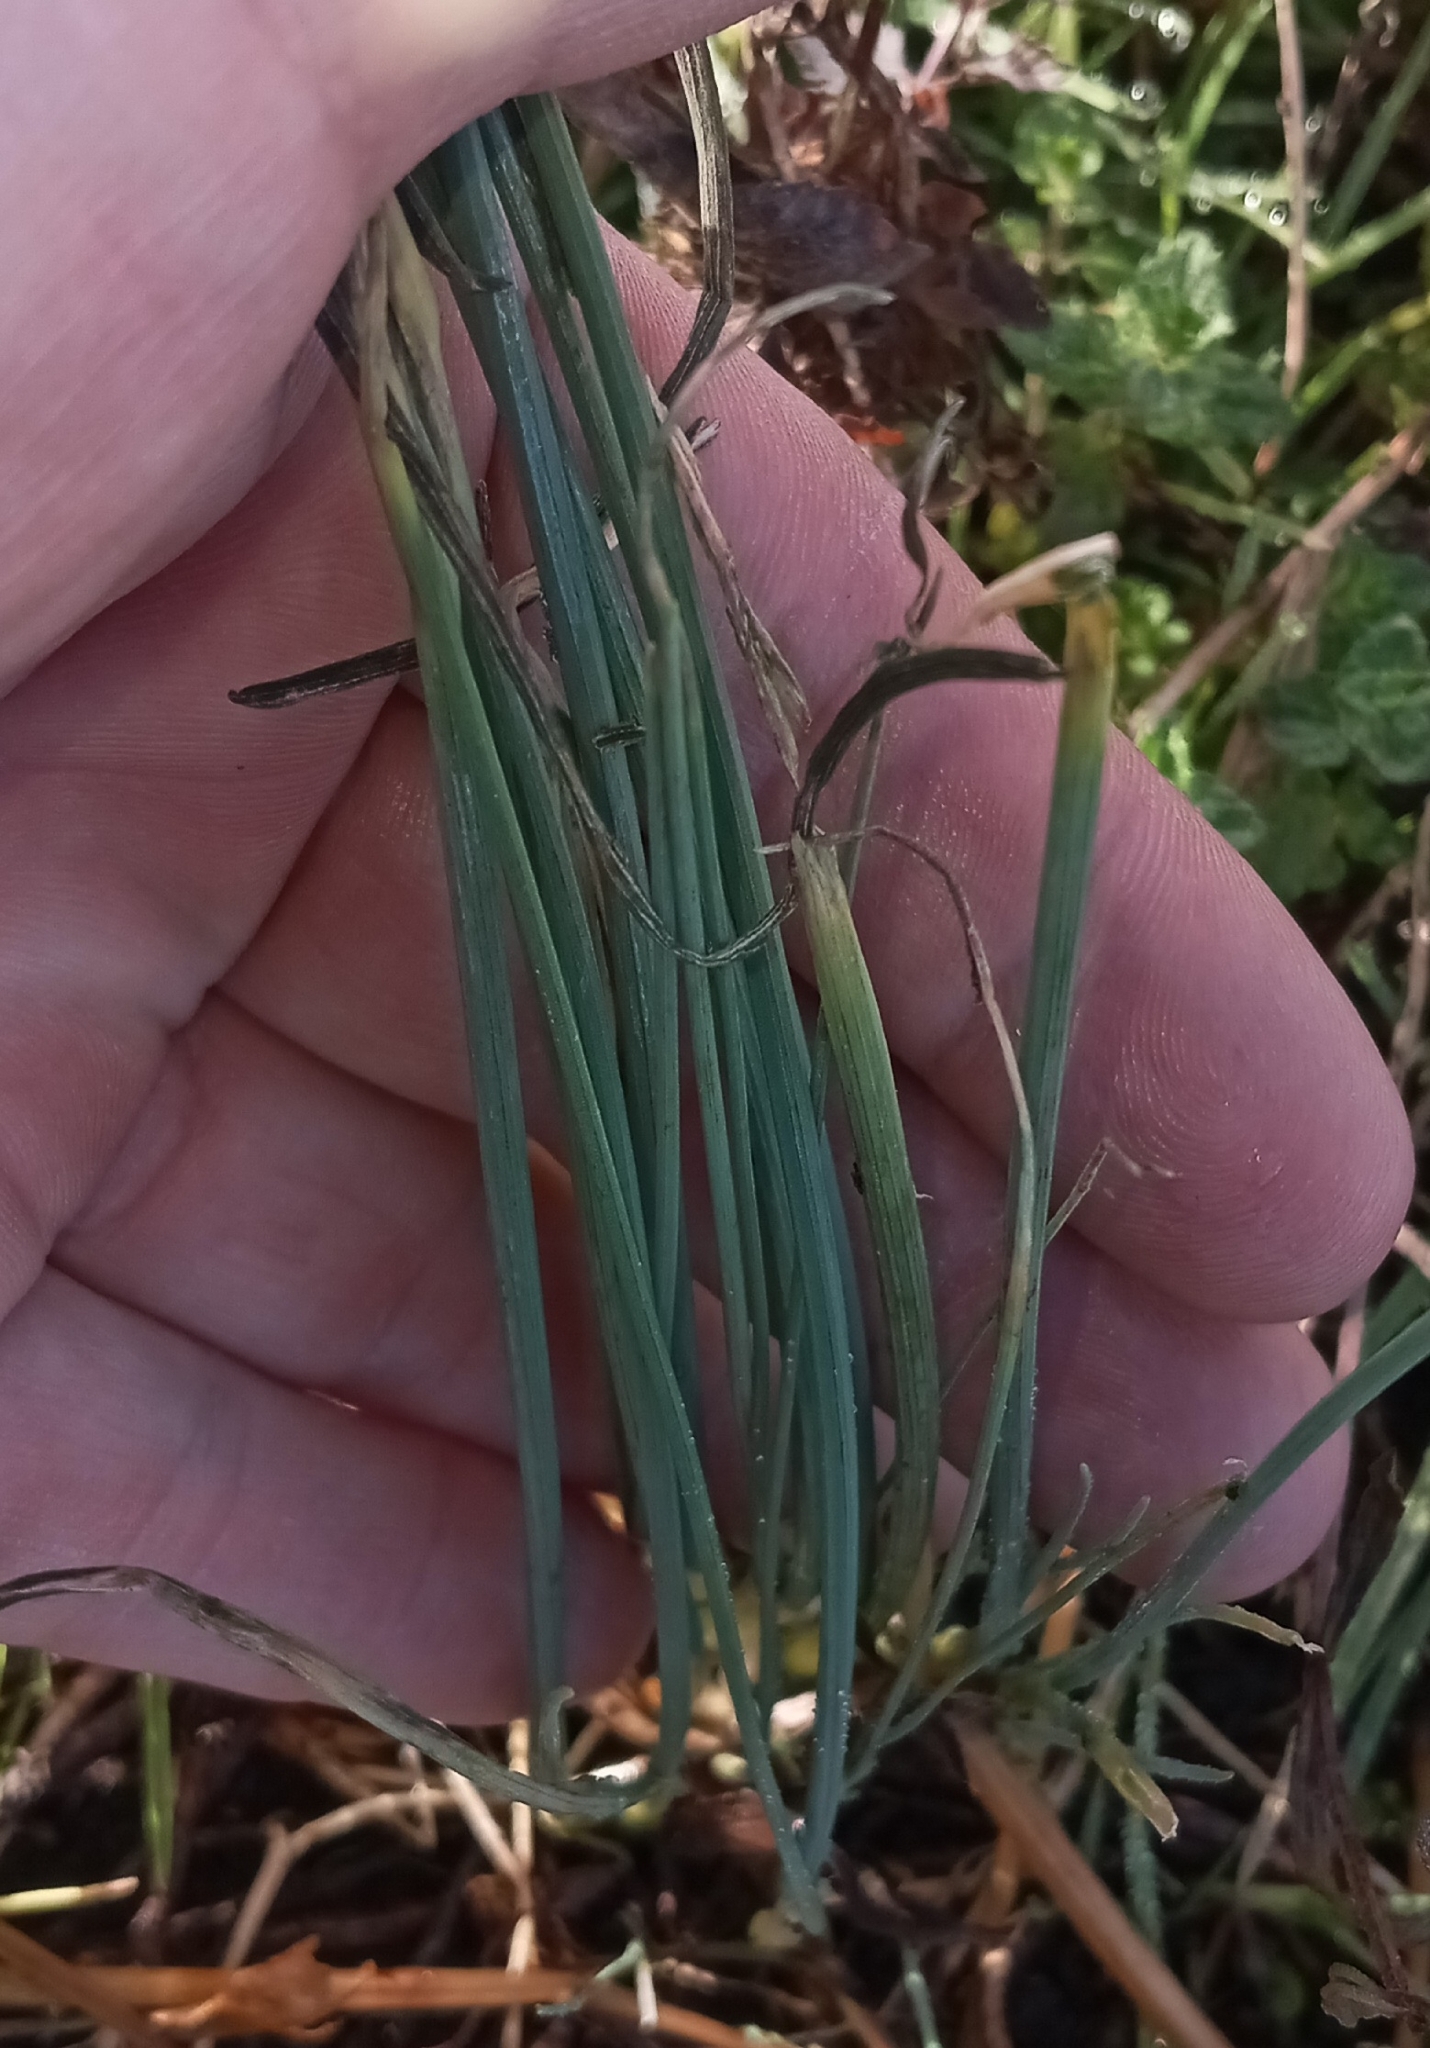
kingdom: Plantae
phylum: Tracheophyta
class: Liliopsida
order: Asparagales
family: Amaryllidaceae
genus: Allium
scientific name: Allium vineale
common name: Crow garlic
